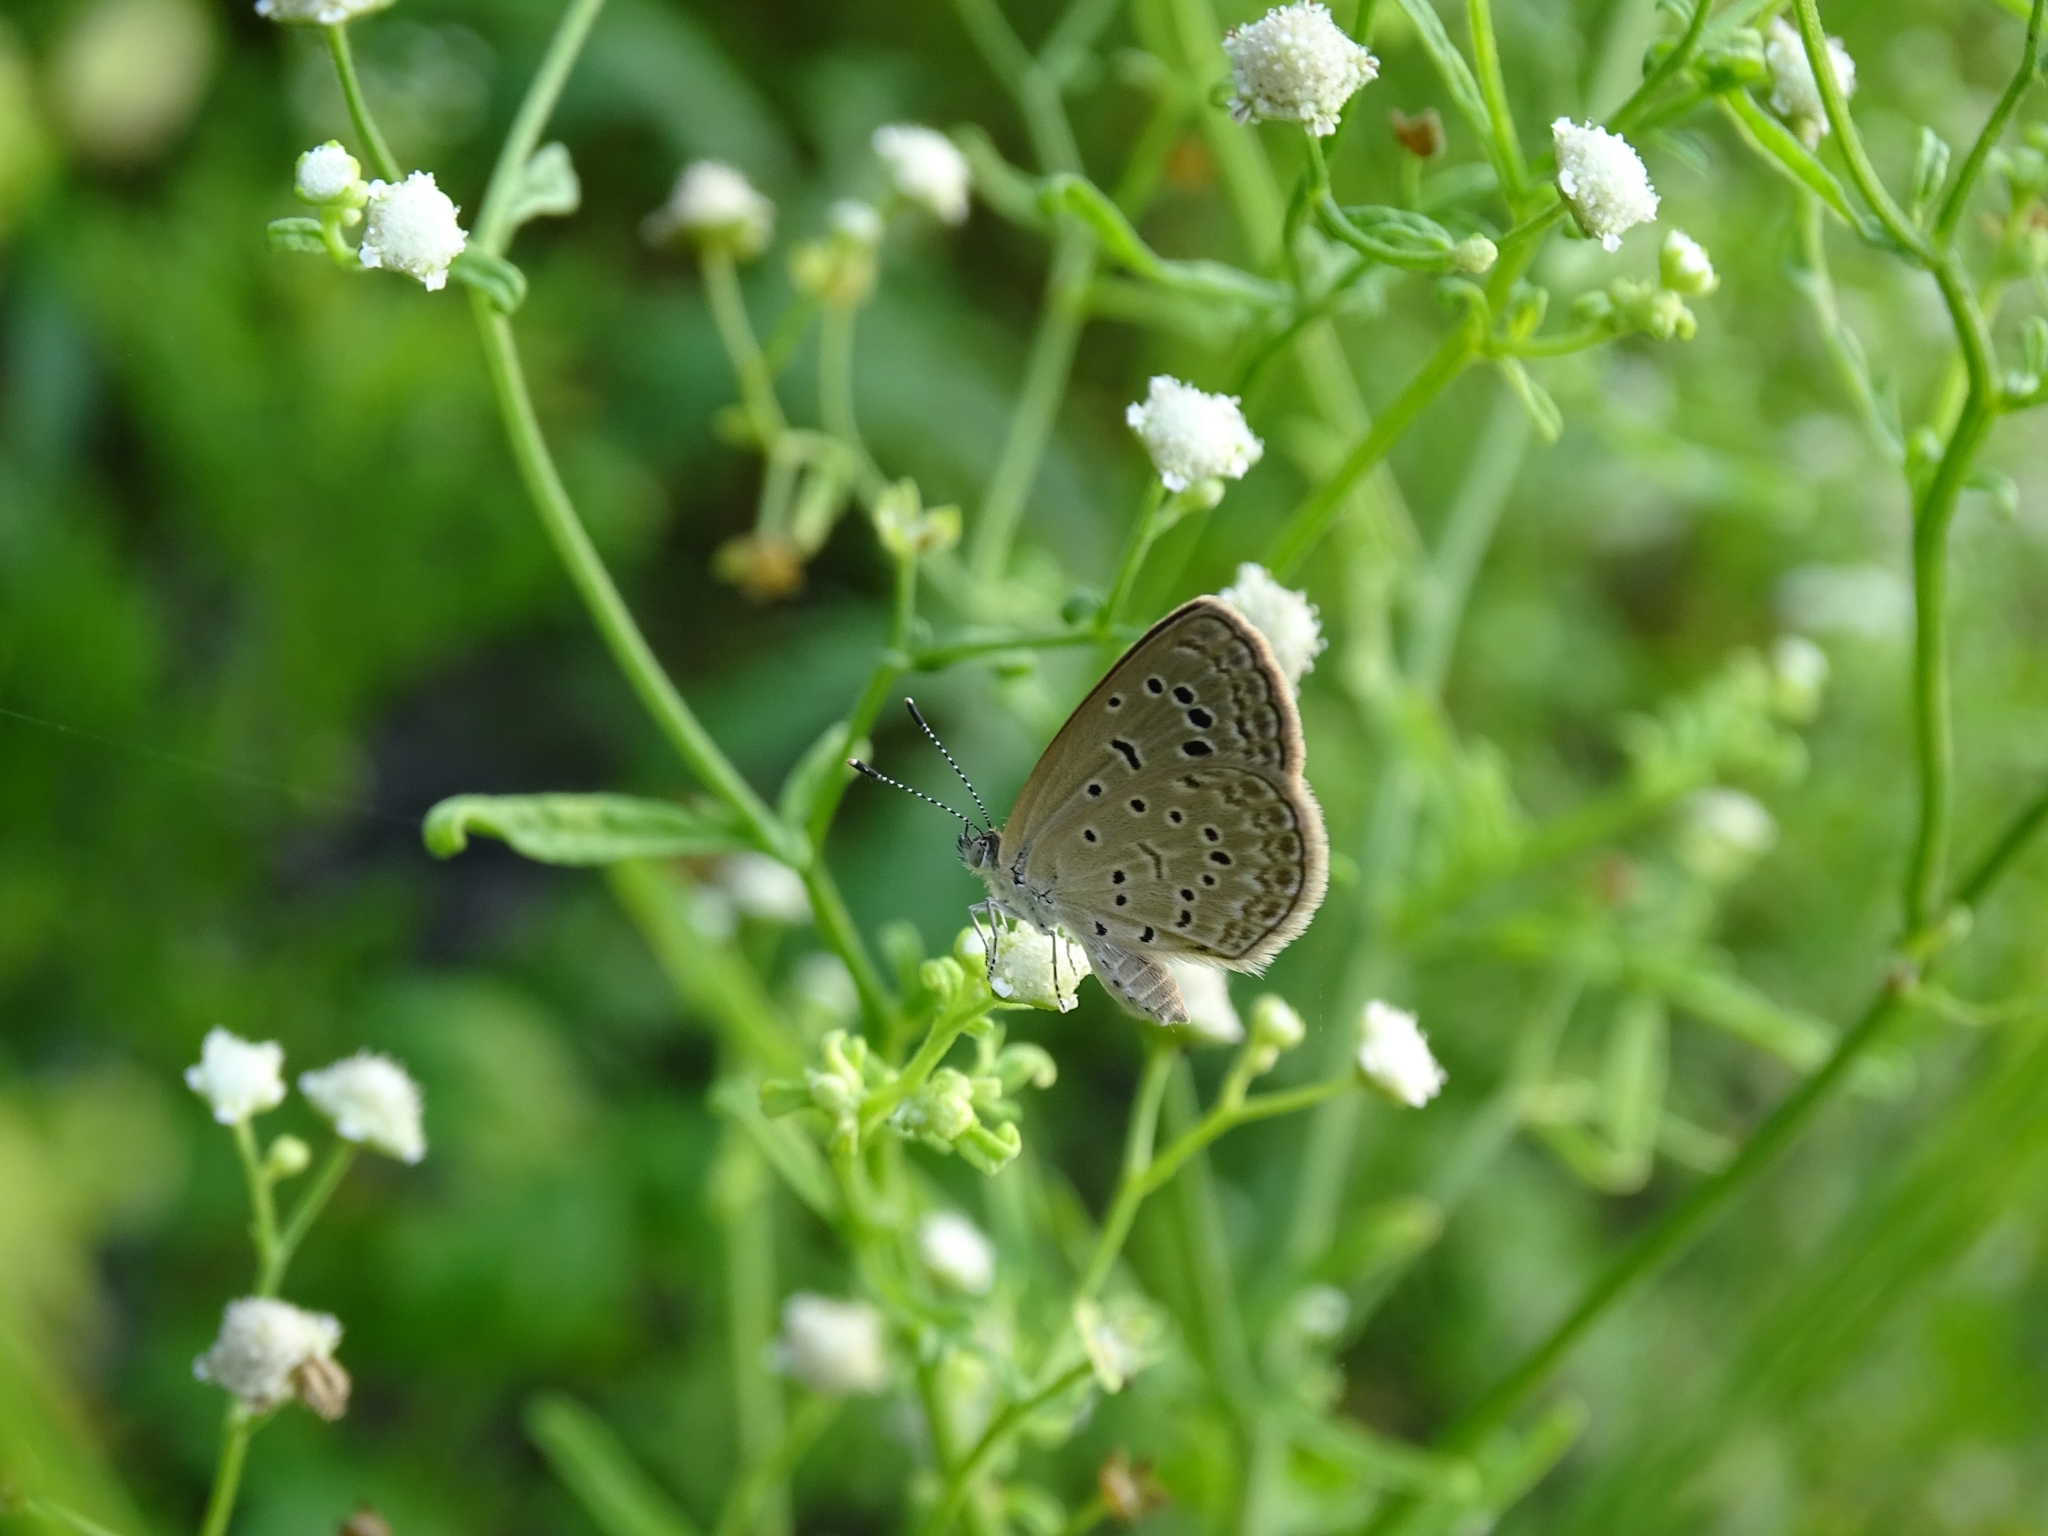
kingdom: Animalia
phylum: Arthropoda
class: Insecta
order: Lepidoptera
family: Lycaenidae
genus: Zizeeria
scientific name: Zizeeria karsandra
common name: Dark grass blue
